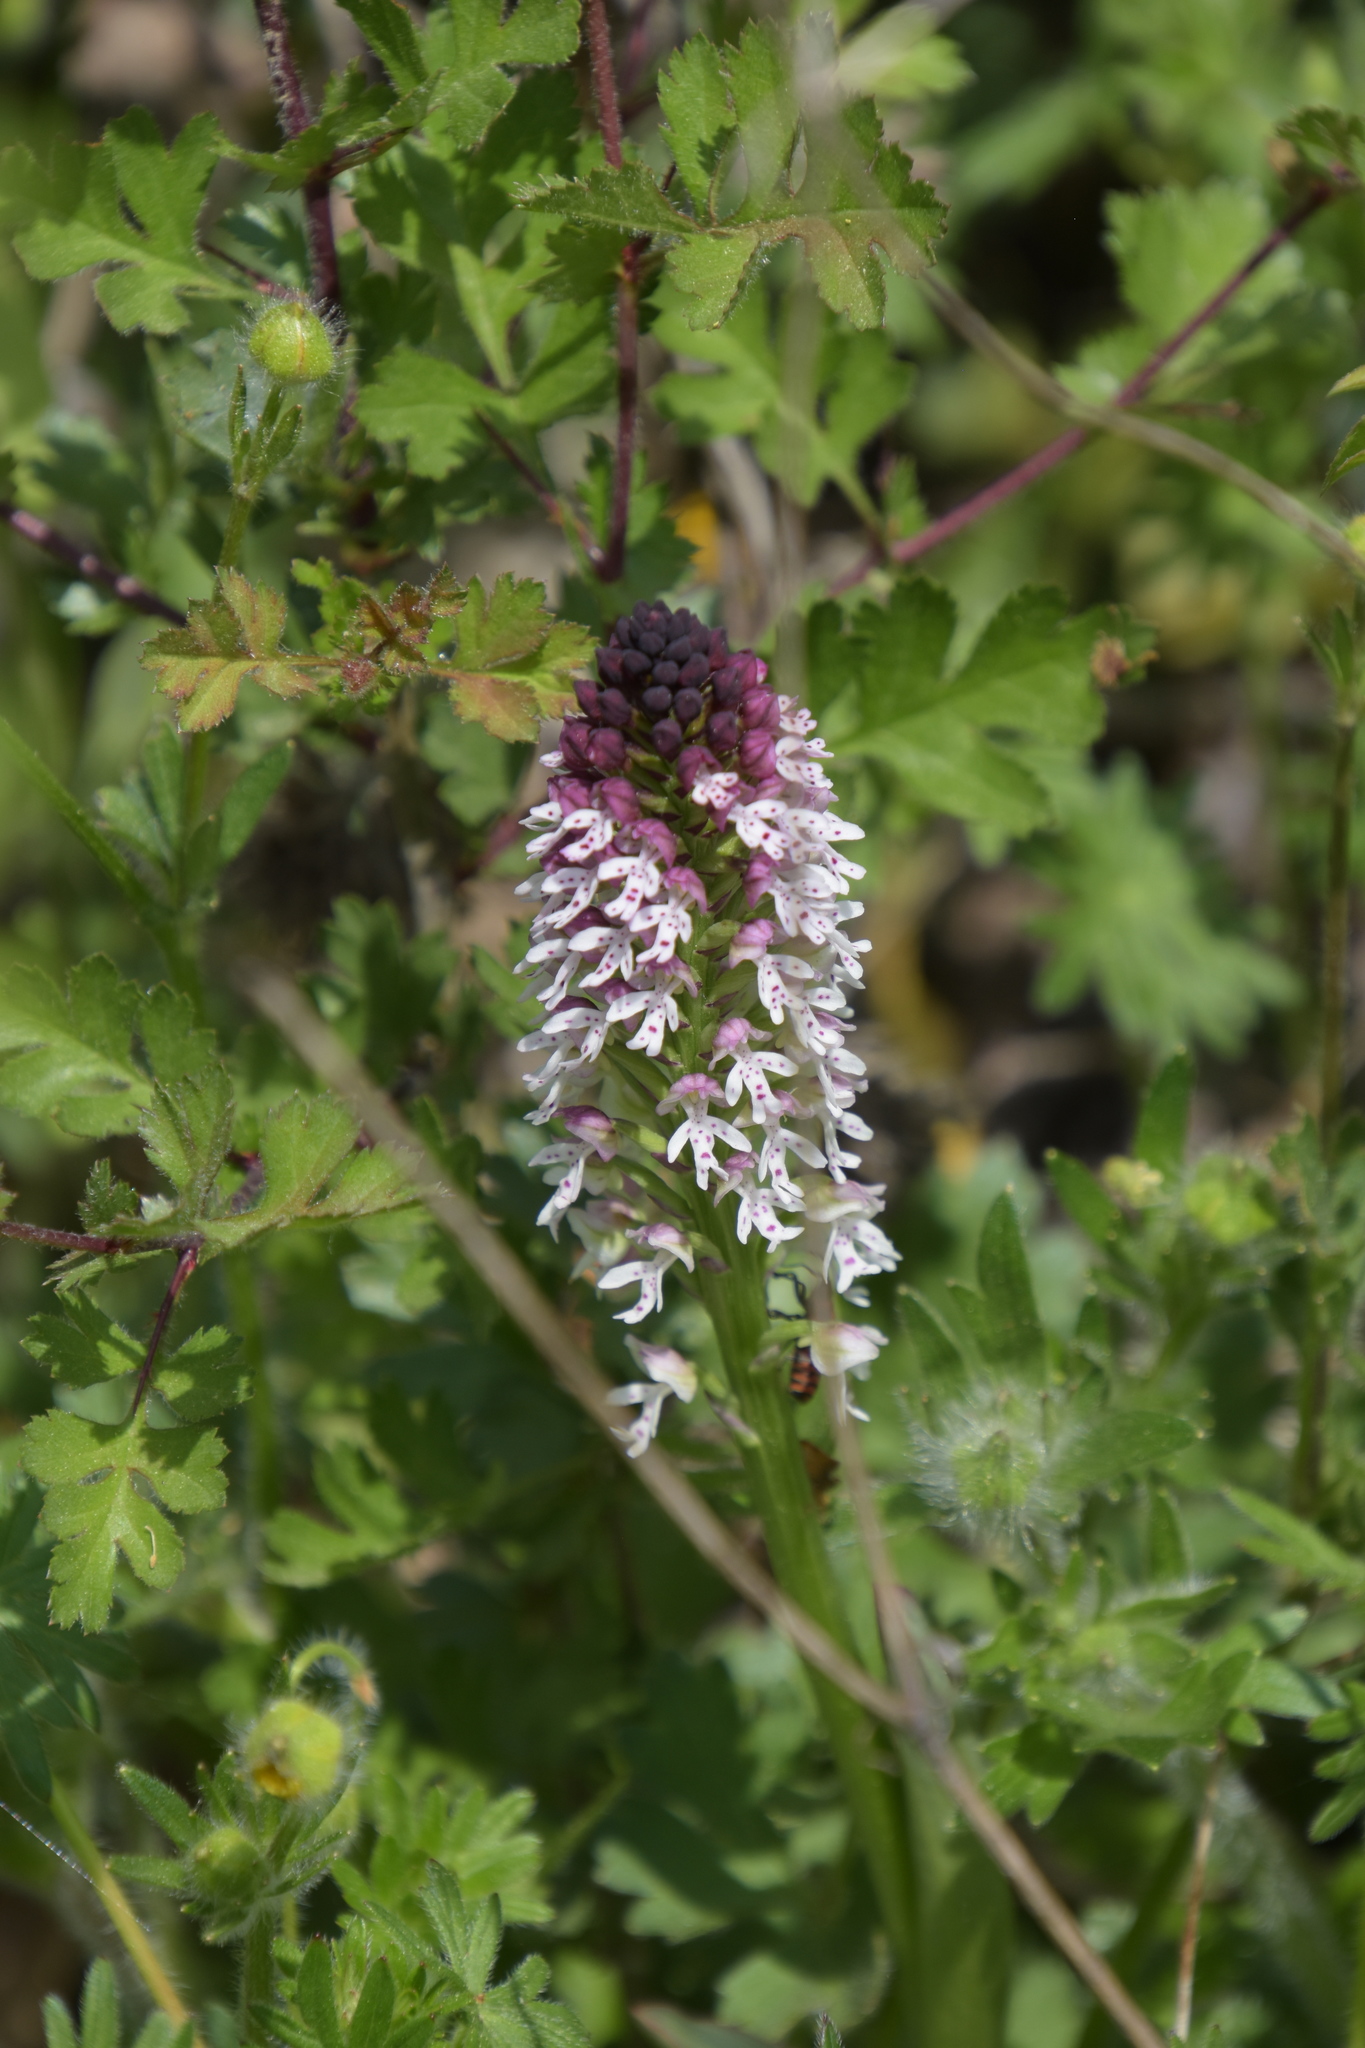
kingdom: Plantae
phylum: Tracheophyta
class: Liliopsida
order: Asparagales
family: Orchidaceae
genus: Neotinea
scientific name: Neotinea ustulata
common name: Burnt orchid
